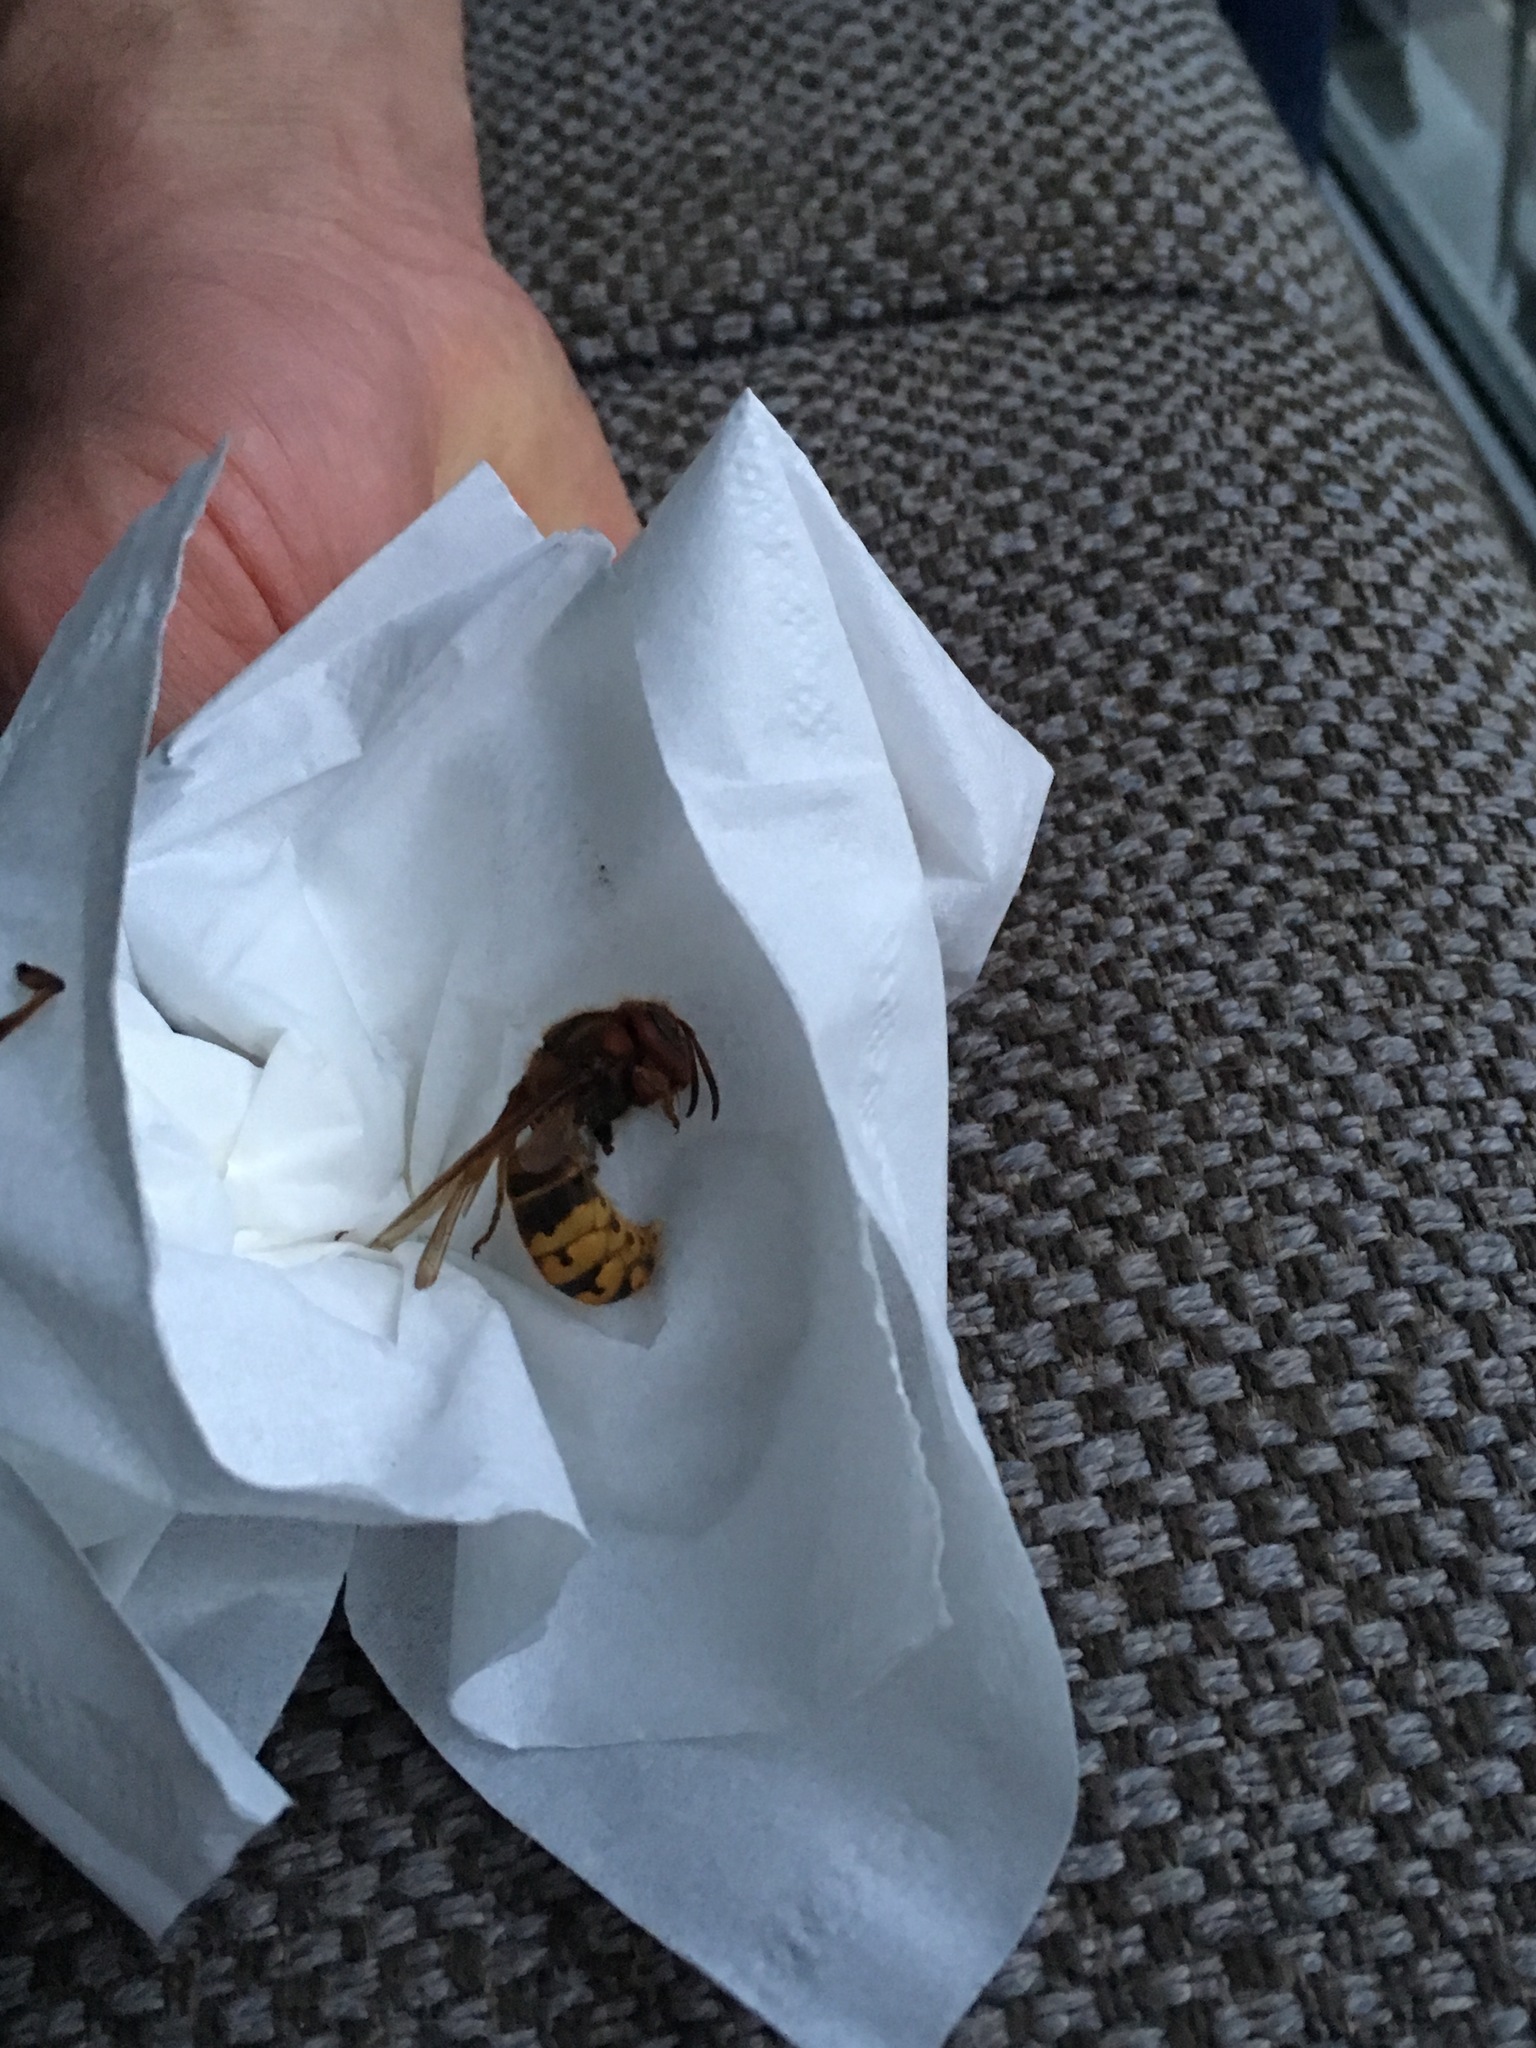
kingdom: Animalia
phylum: Arthropoda
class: Insecta
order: Hymenoptera
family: Vespidae
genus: Vespa
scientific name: Vespa crabro
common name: Hornet
